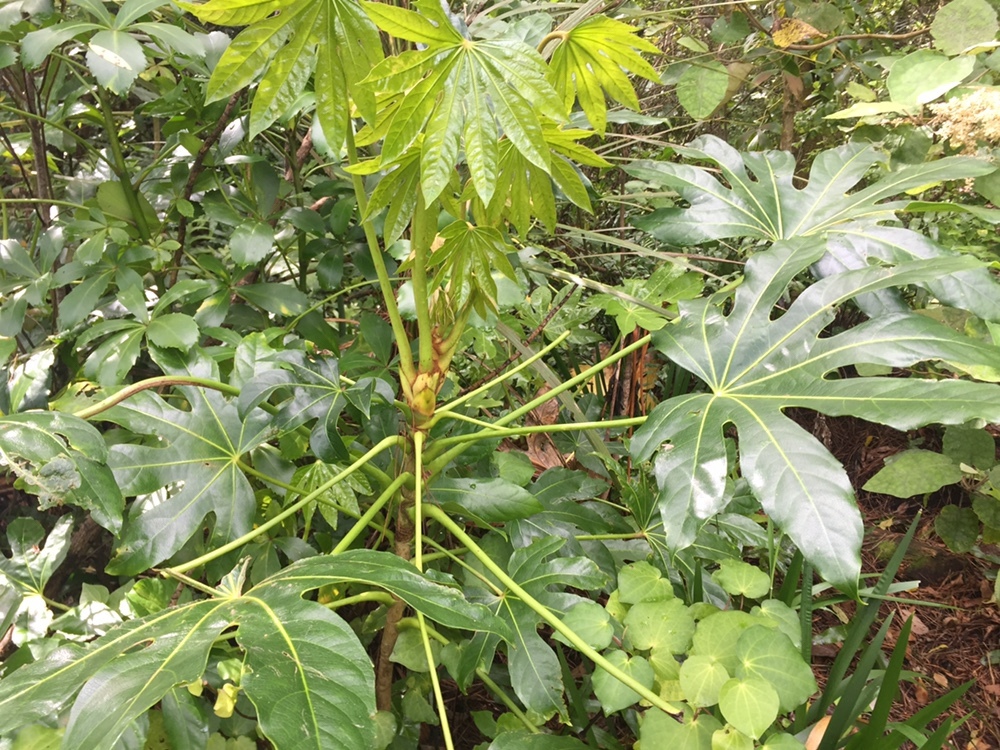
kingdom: Plantae
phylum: Tracheophyta
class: Magnoliopsida
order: Apiales
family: Araliaceae
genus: Fatsia
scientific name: Fatsia japonica
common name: Fatsia
